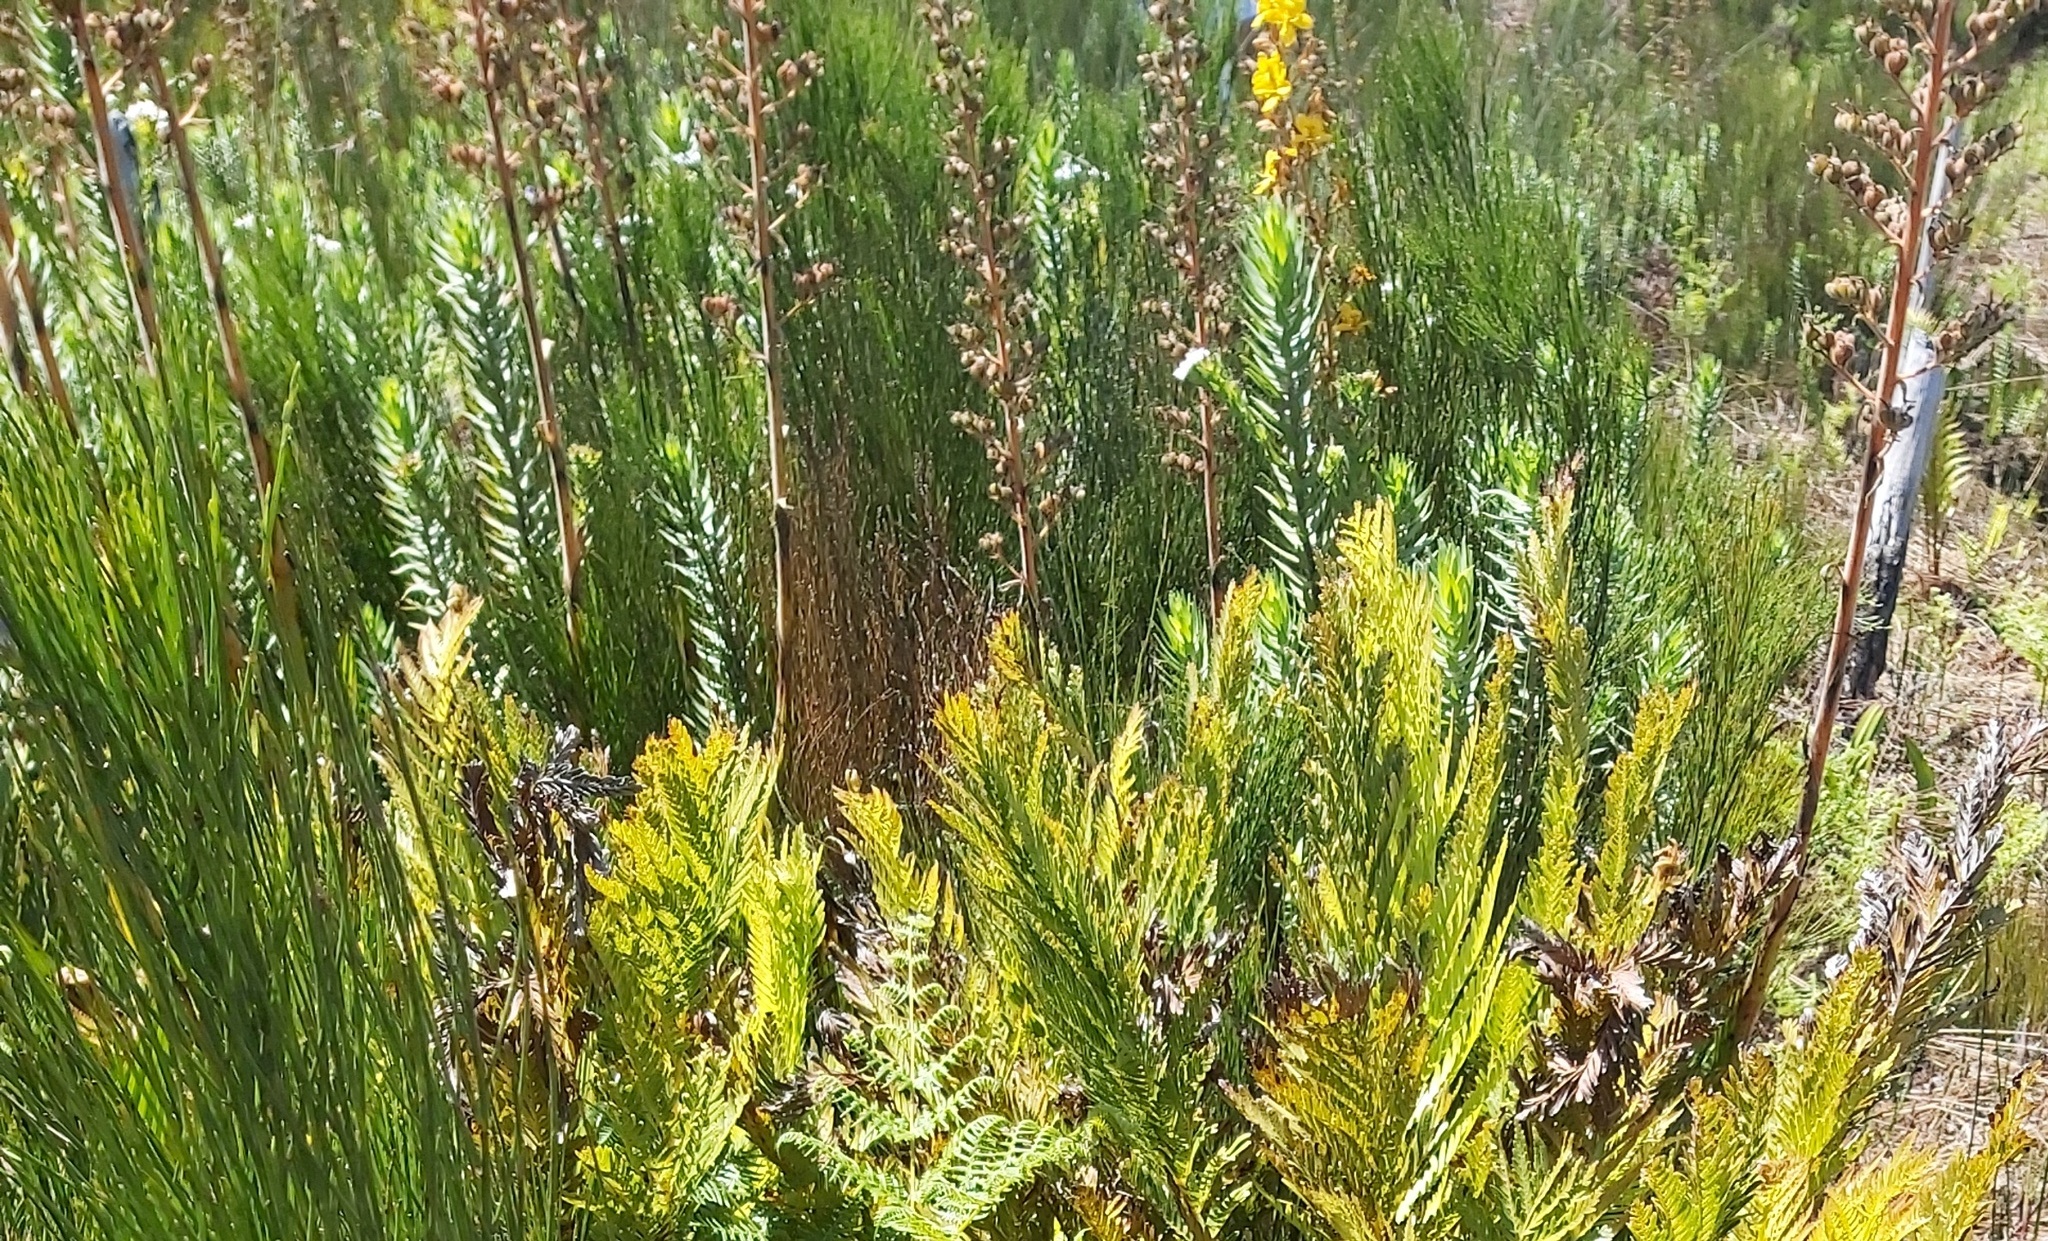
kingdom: Plantae
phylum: Tracheophyta
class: Liliopsida
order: Commelinales
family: Haemodoraceae
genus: Wachendorfia
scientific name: Wachendorfia thyrsiflora
